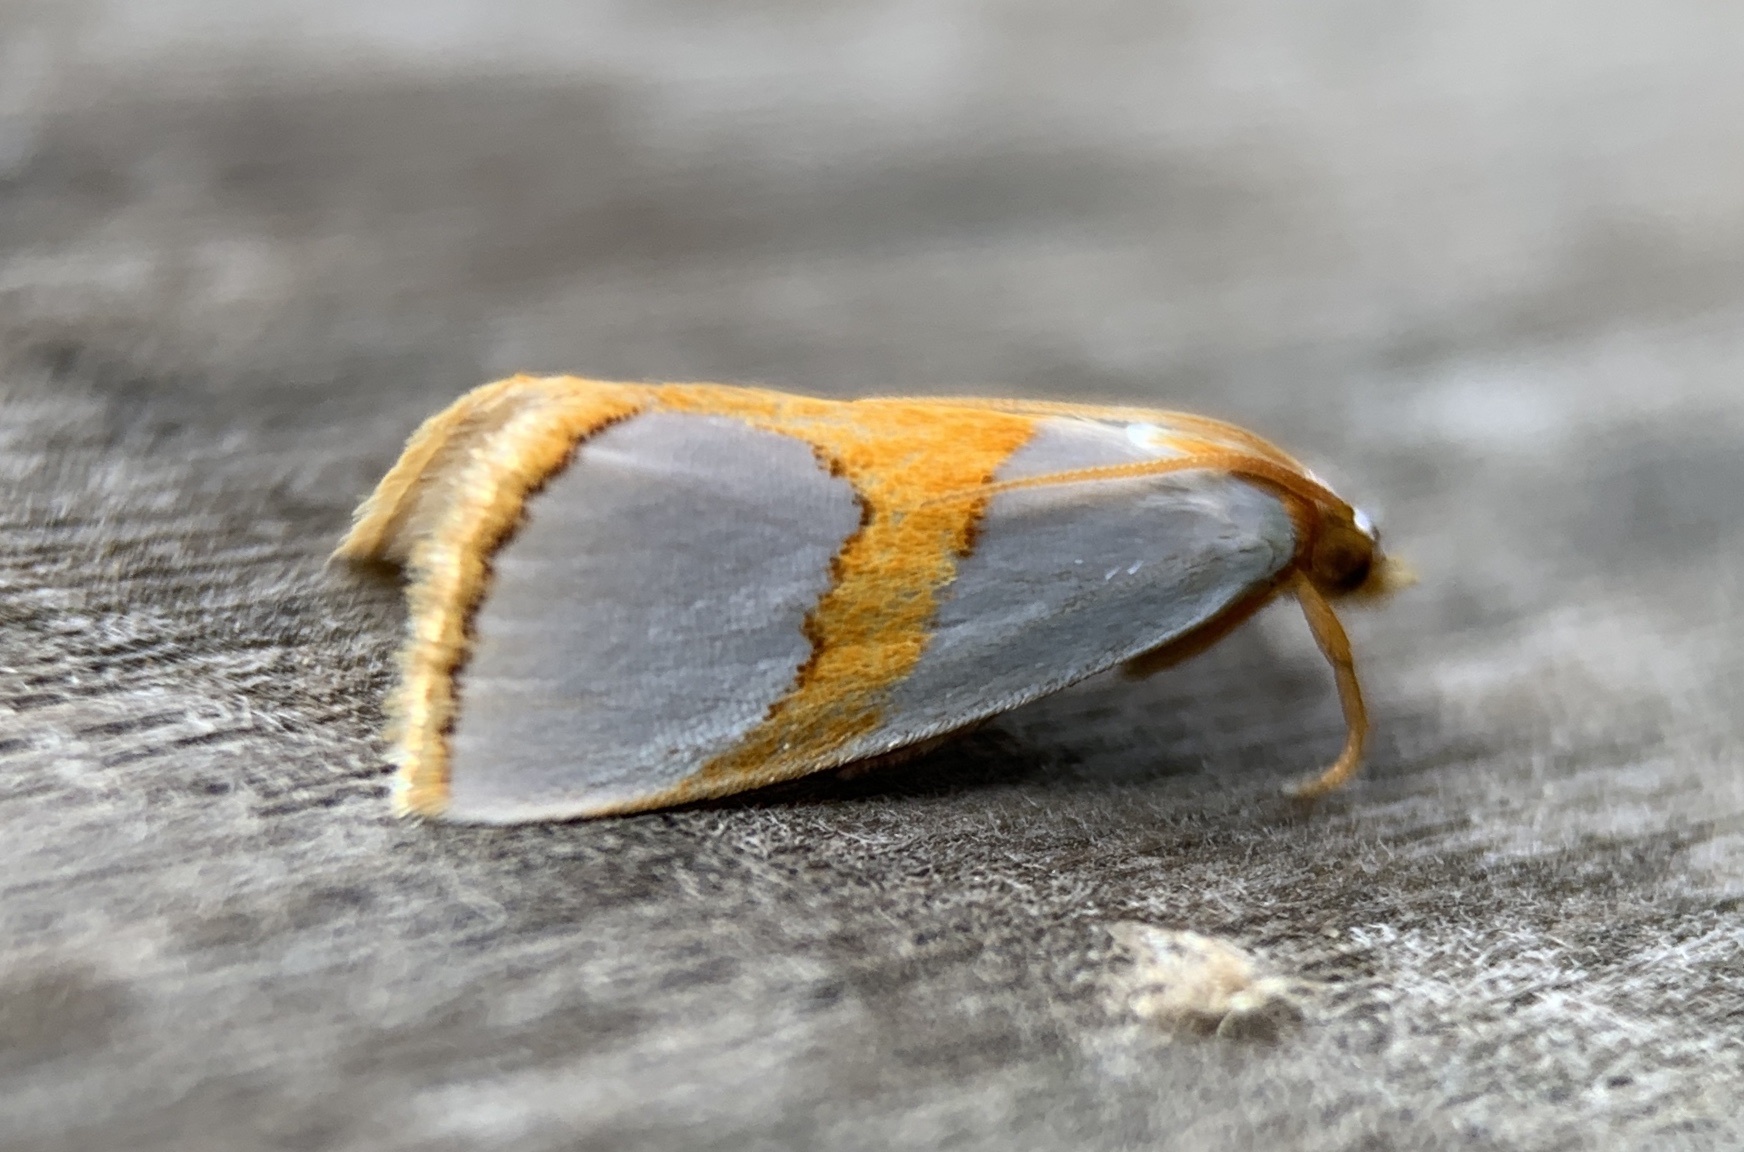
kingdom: Animalia
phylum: Arthropoda
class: Insecta
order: Lepidoptera
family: Crambidae
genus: Argyria
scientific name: Argyria auratella
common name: Curve-lined argyria moth
